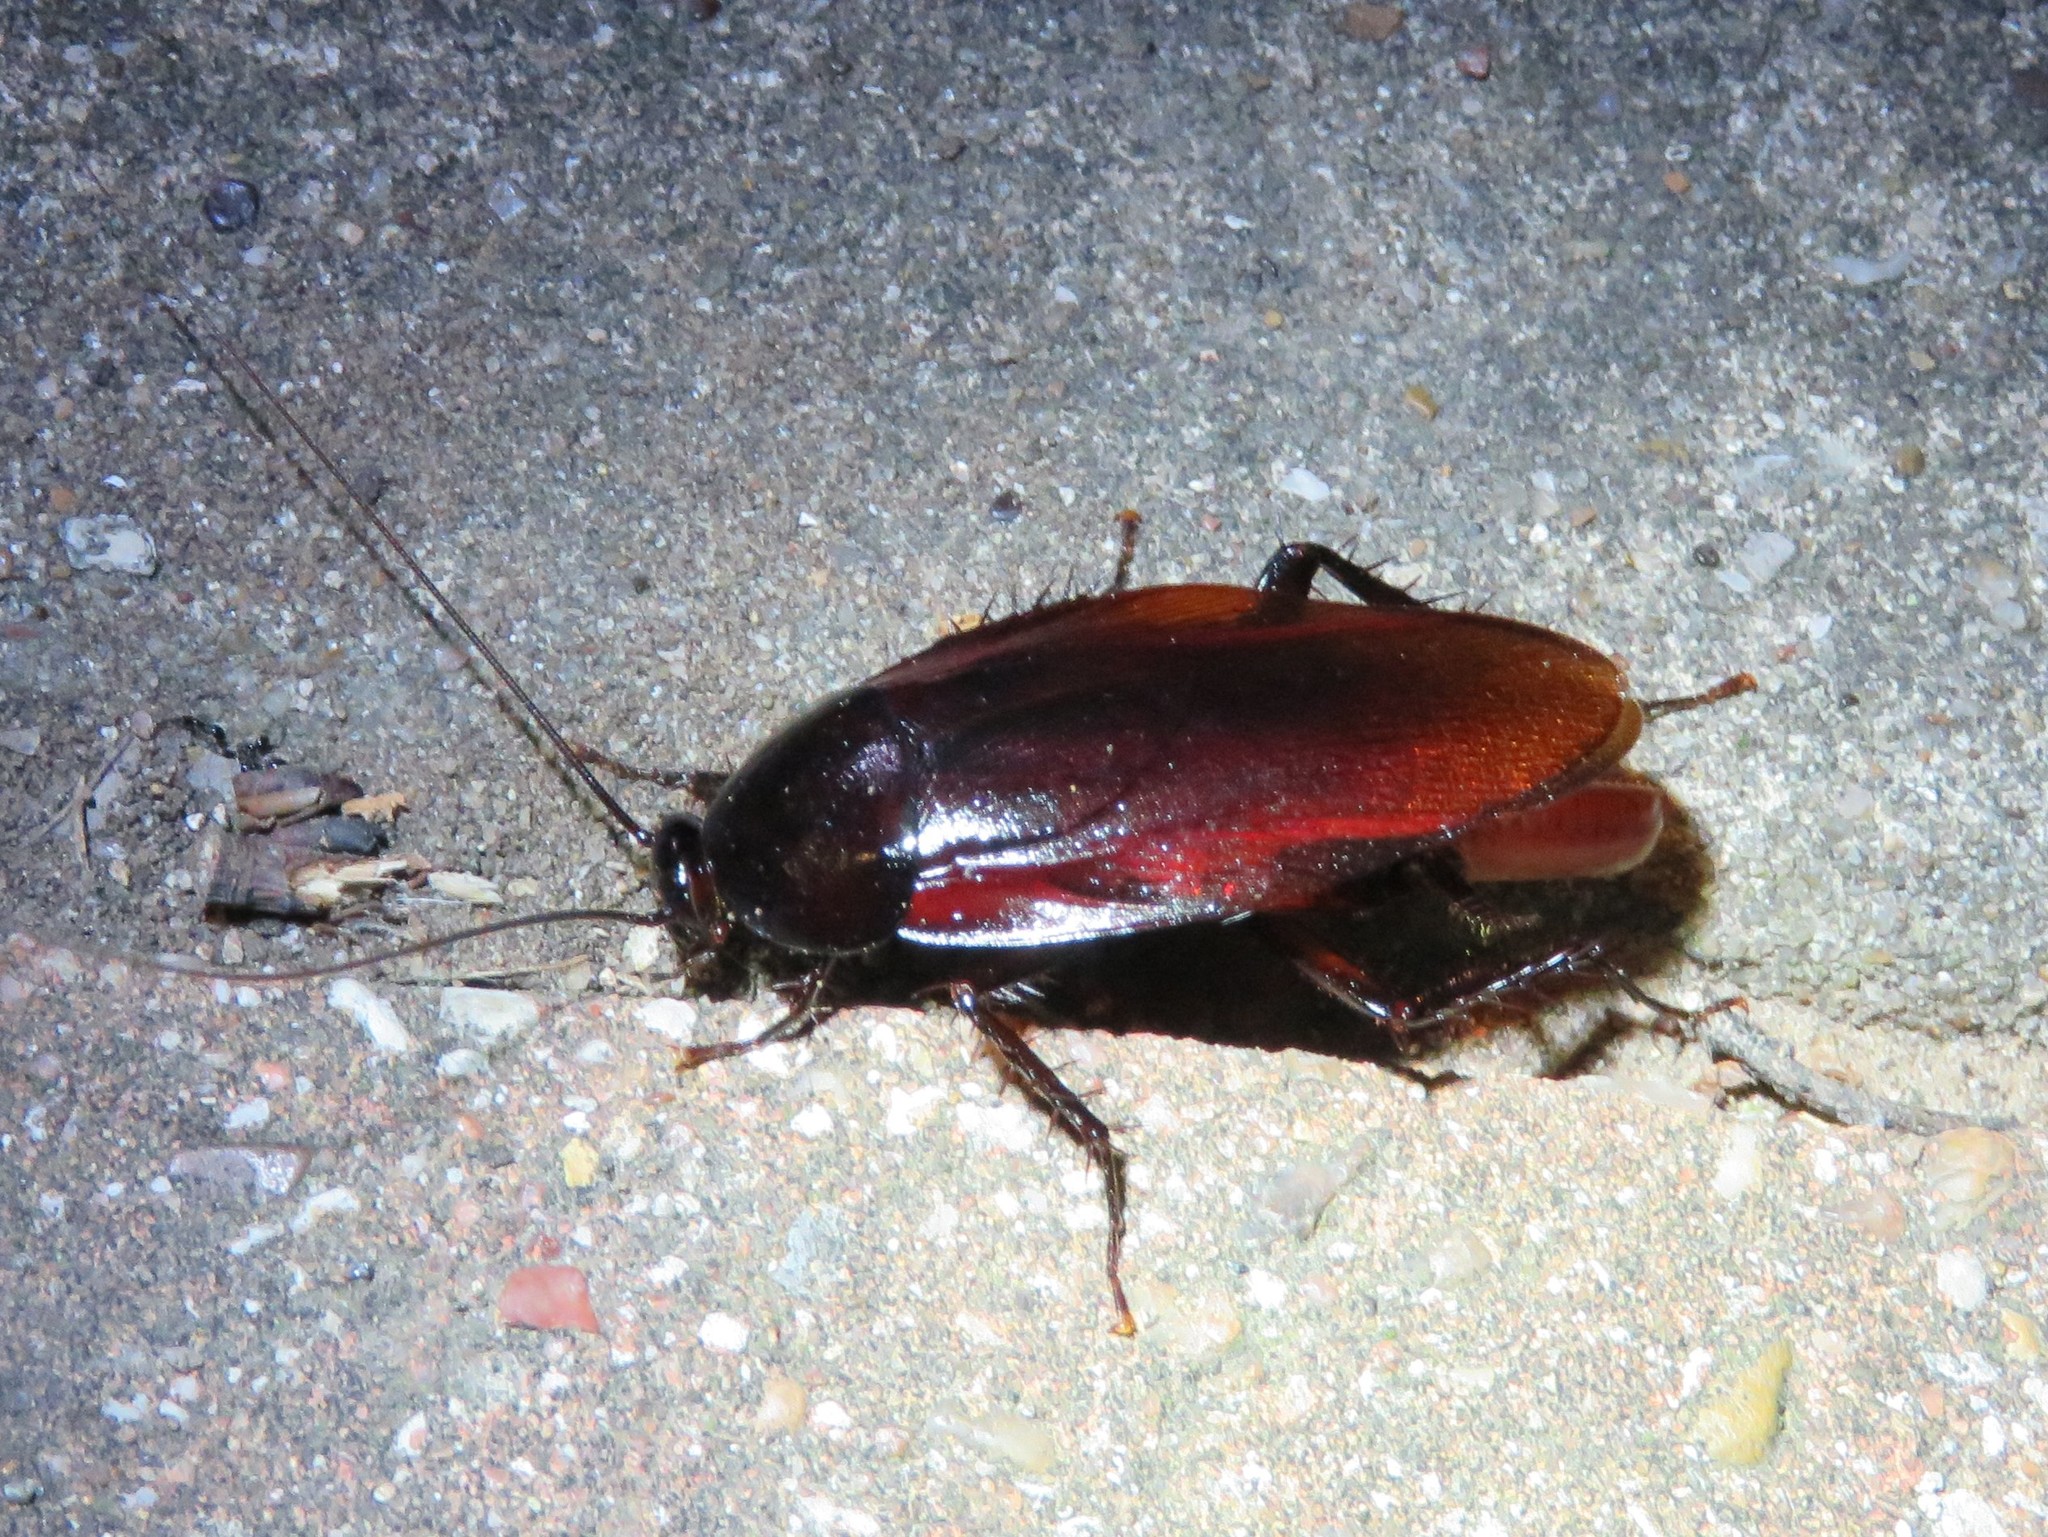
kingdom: Animalia
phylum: Arthropoda
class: Insecta
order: Blattodea
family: Blattidae
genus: Periplaneta
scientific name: Periplaneta fuliginosa
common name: Smokeybrown cockroad
